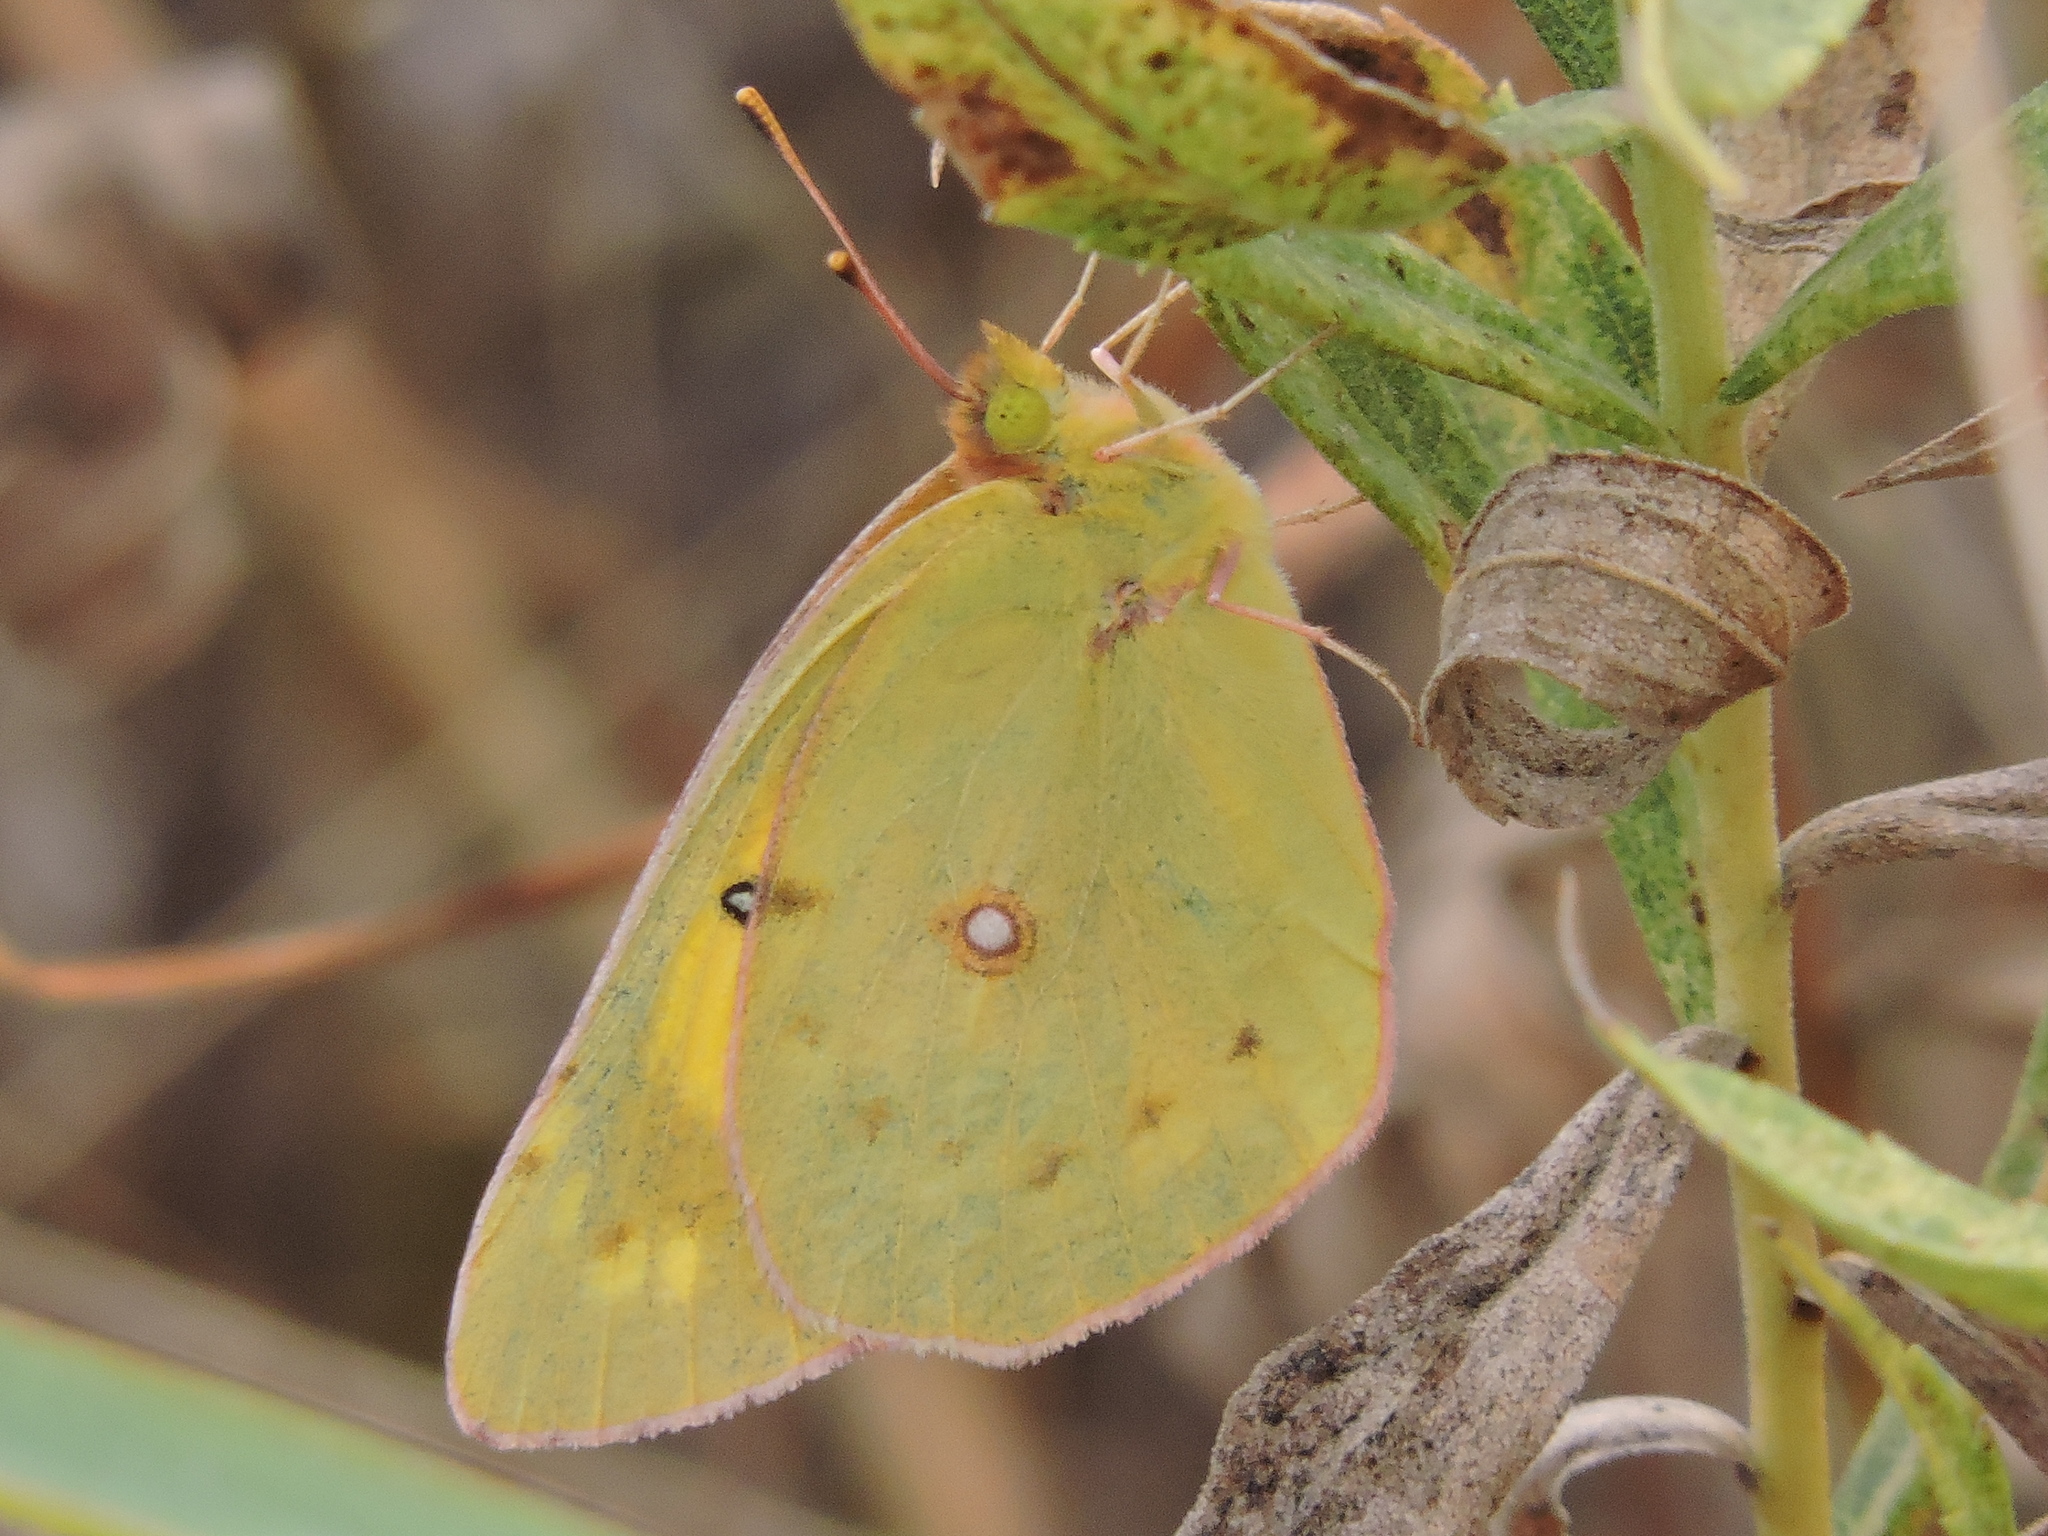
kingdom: Animalia
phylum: Arthropoda
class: Insecta
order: Lepidoptera
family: Pieridae
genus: Colias
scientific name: Colias eurytheme
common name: Alfalfa butterfly
